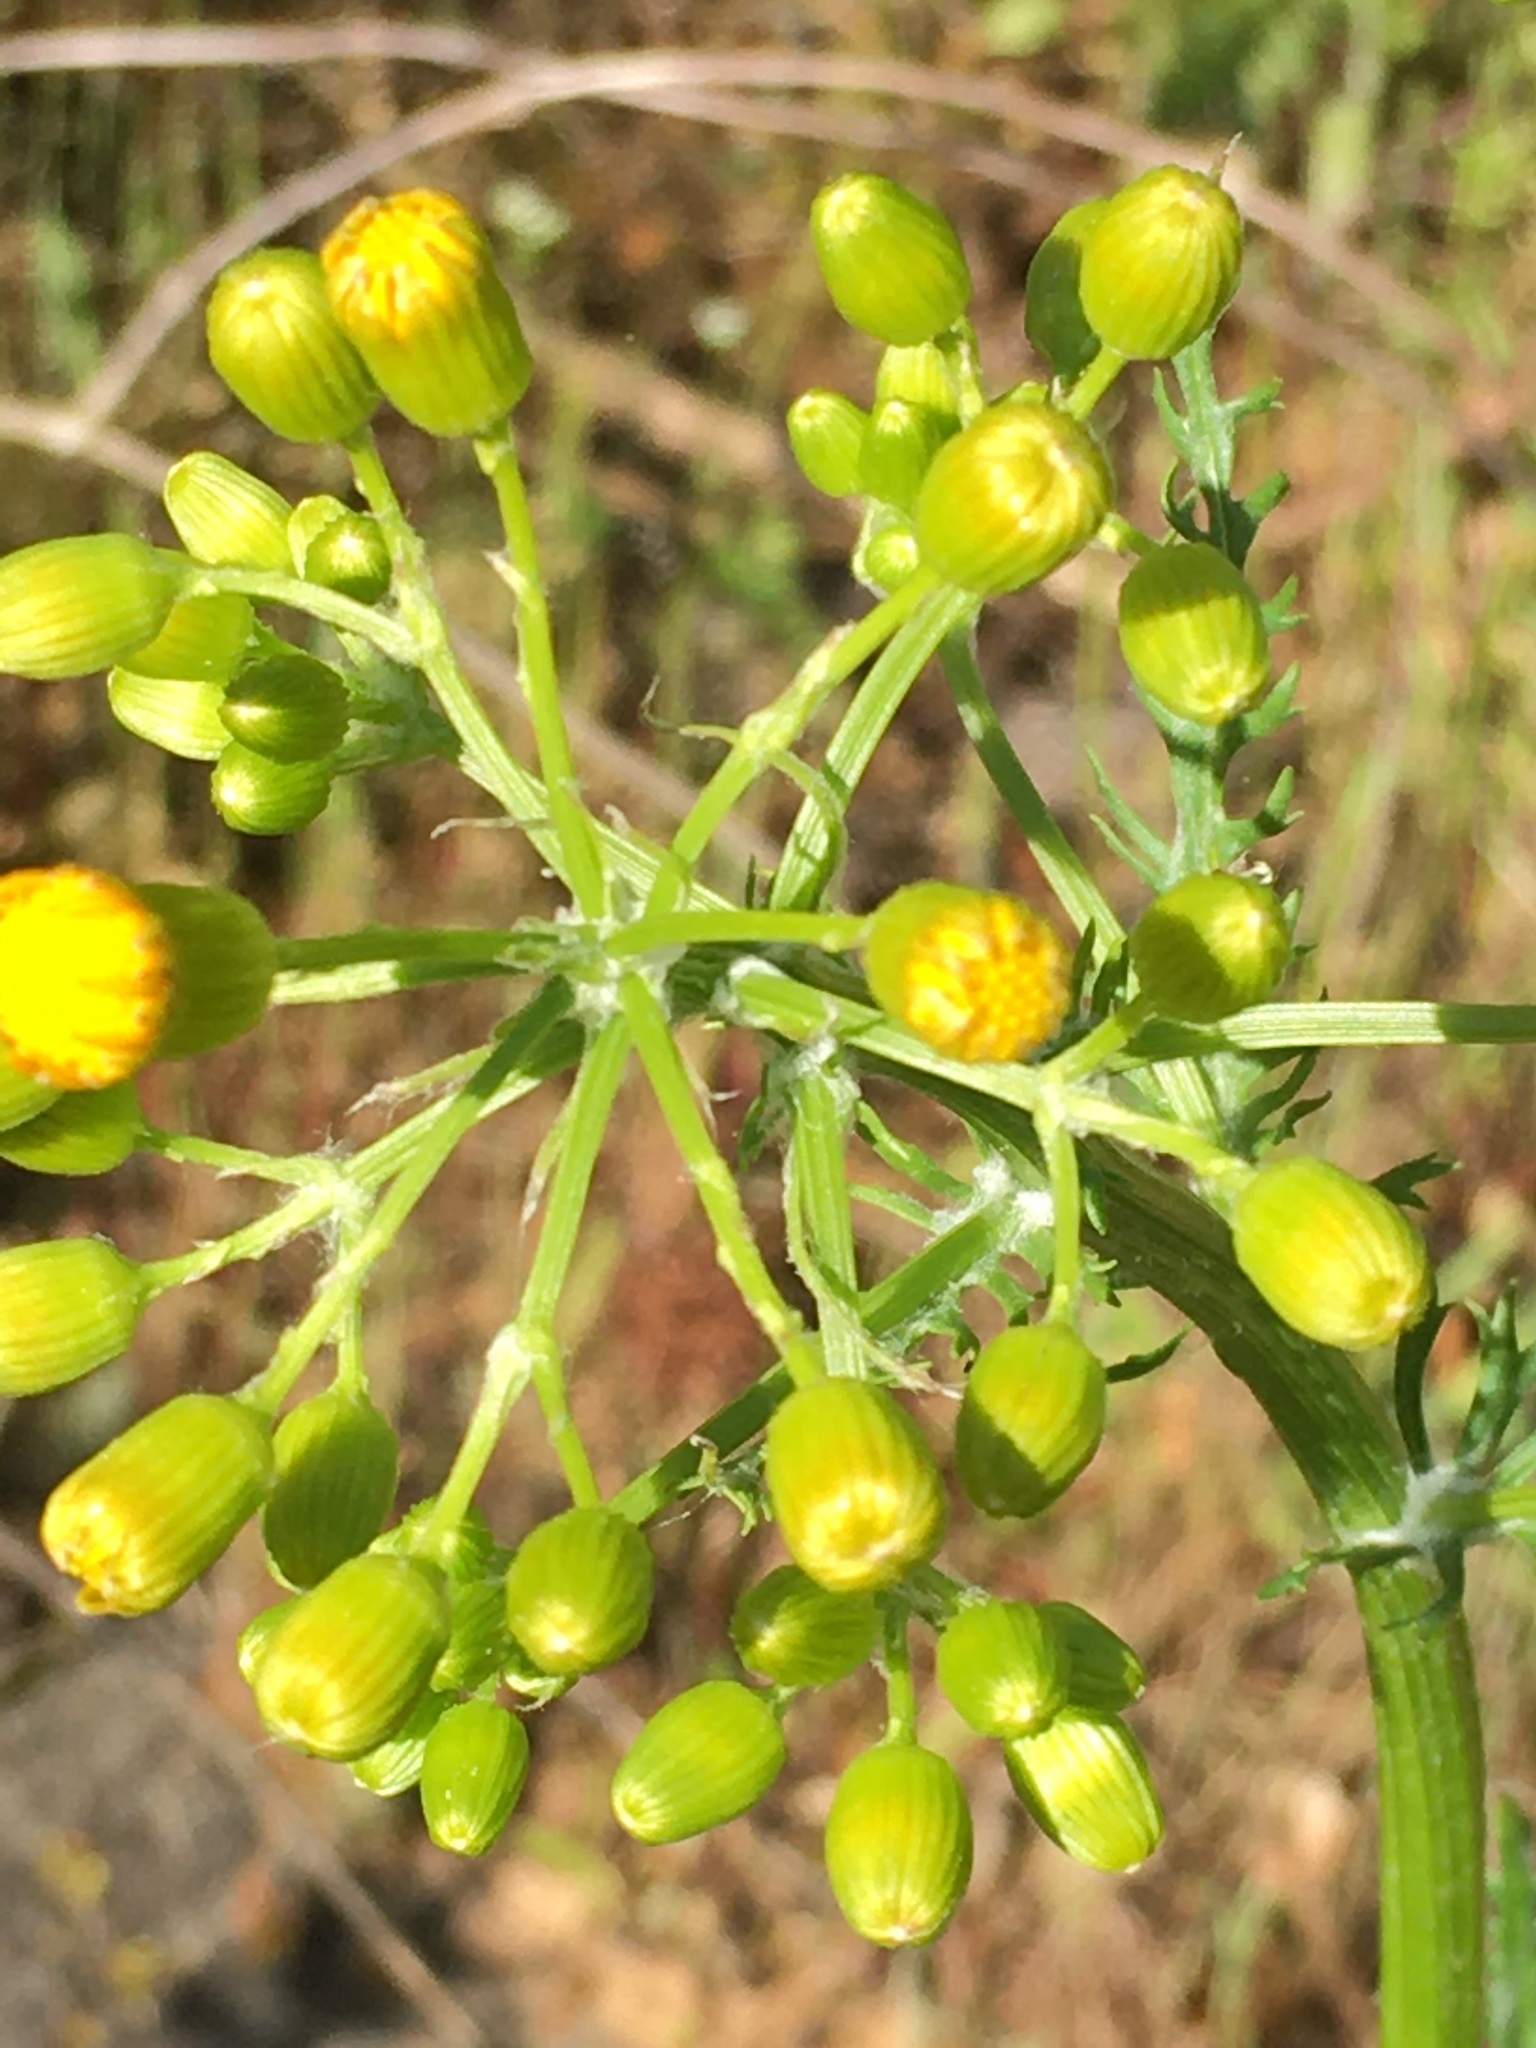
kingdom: Plantae
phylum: Tracheophyta
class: Magnoliopsida
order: Asterales
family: Asteraceae
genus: Packera
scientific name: Packera anonyma
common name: Small ragwort
